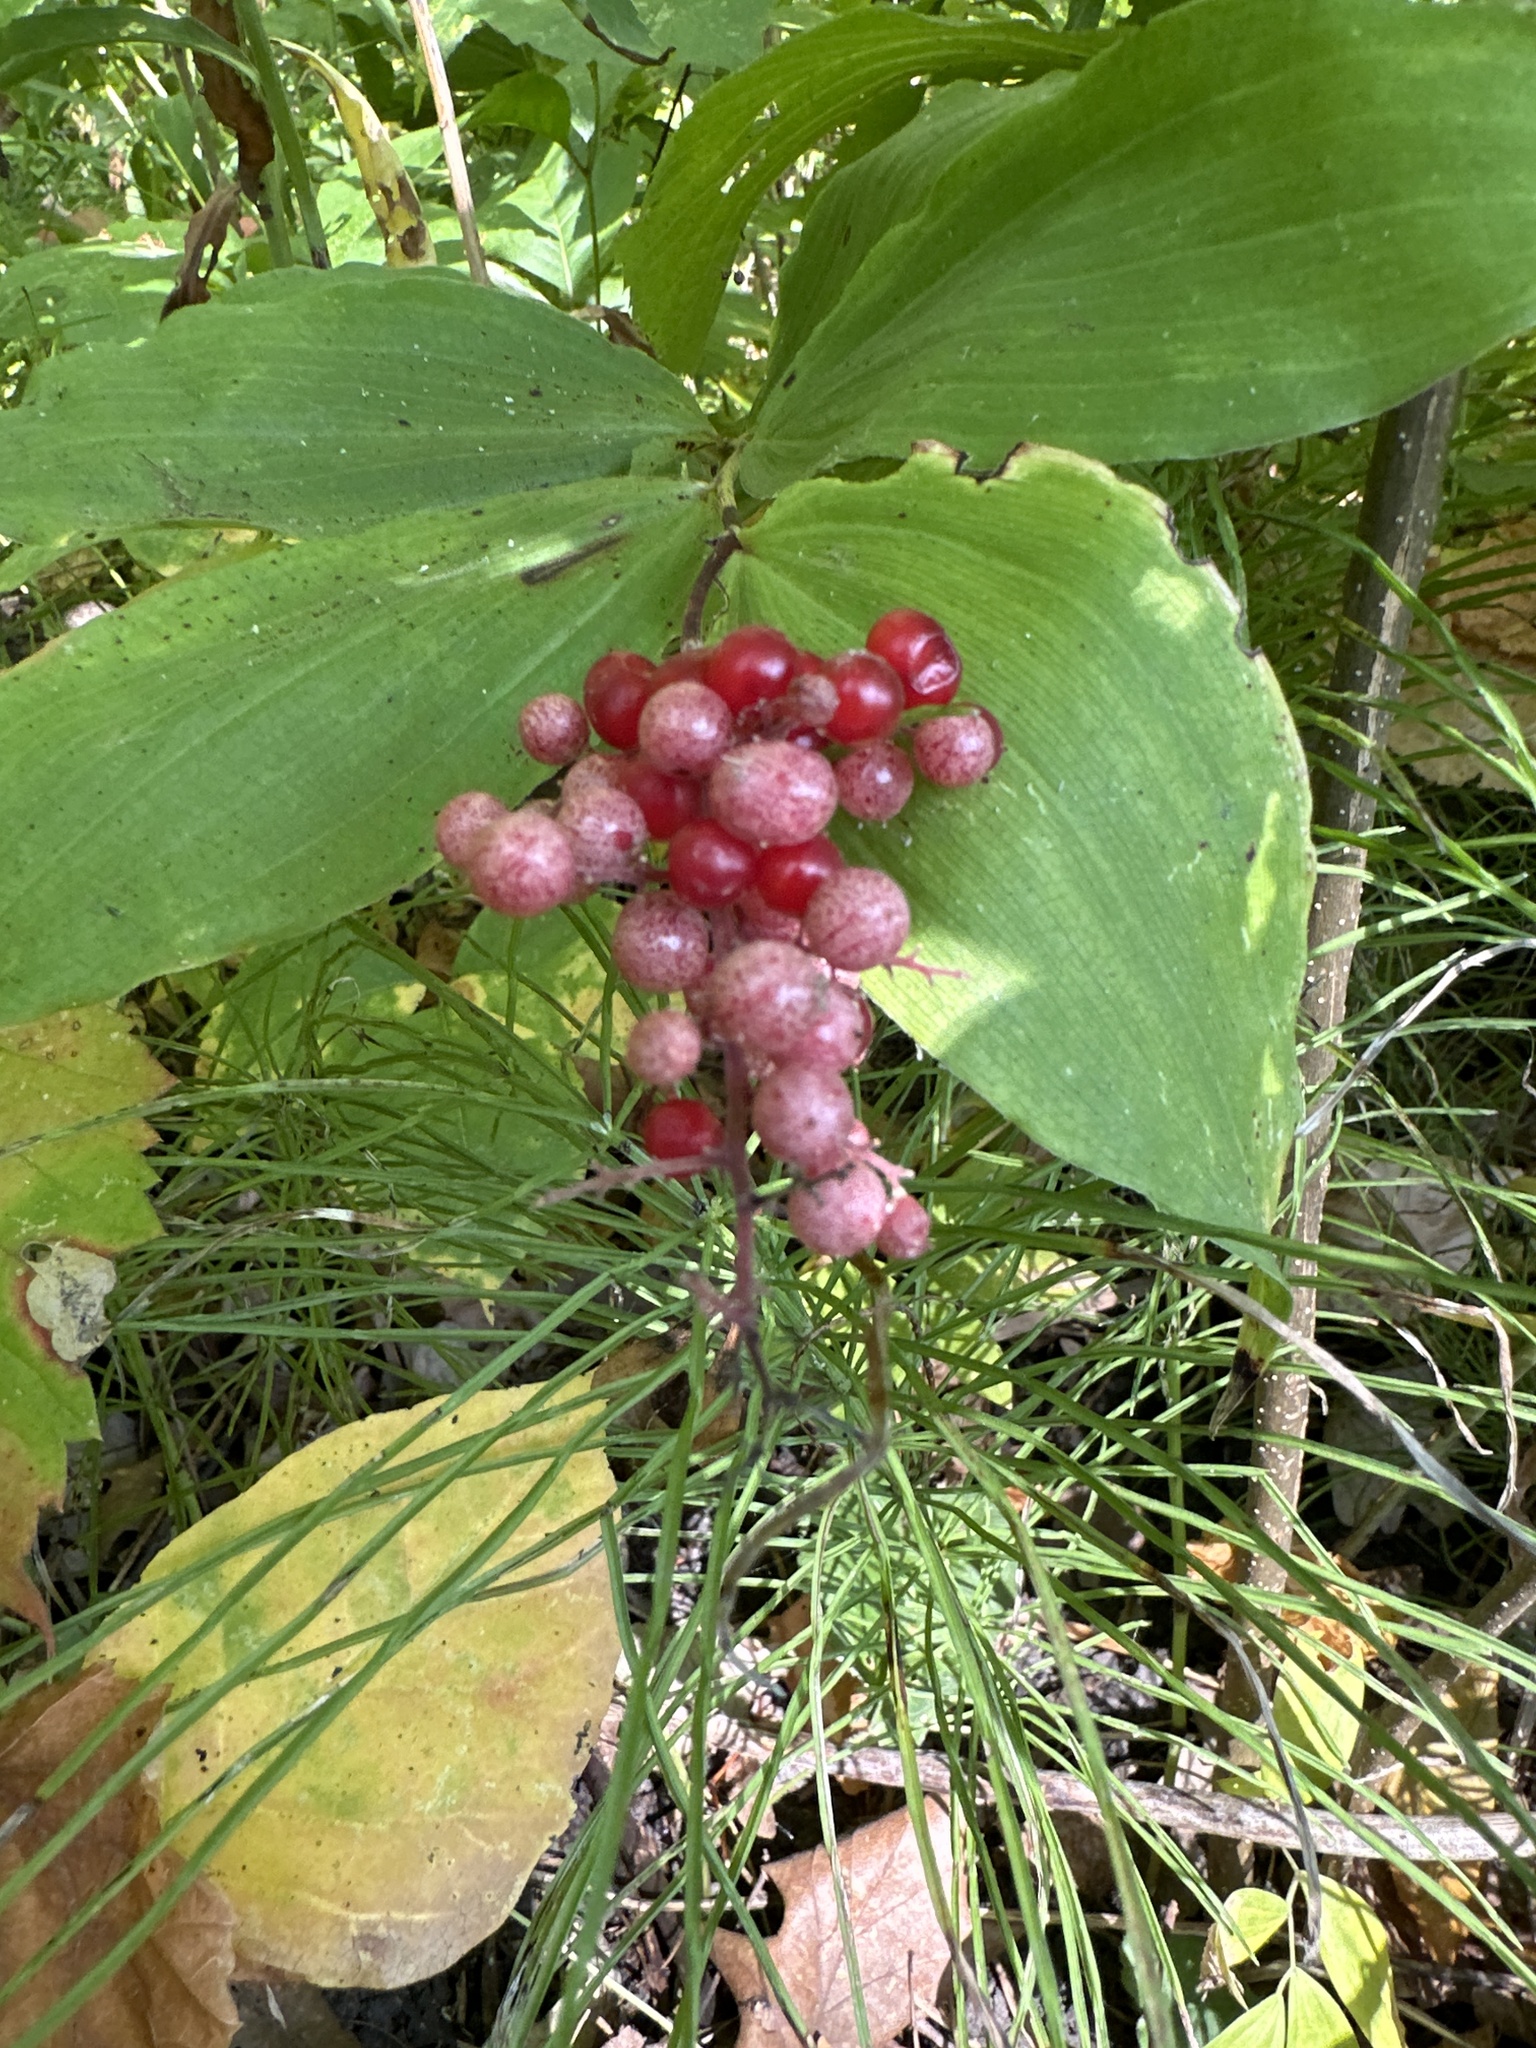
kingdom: Plantae
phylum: Tracheophyta
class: Liliopsida
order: Asparagales
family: Asparagaceae
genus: Maianthemum
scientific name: Maianthemum racemosum
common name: False spikenard
